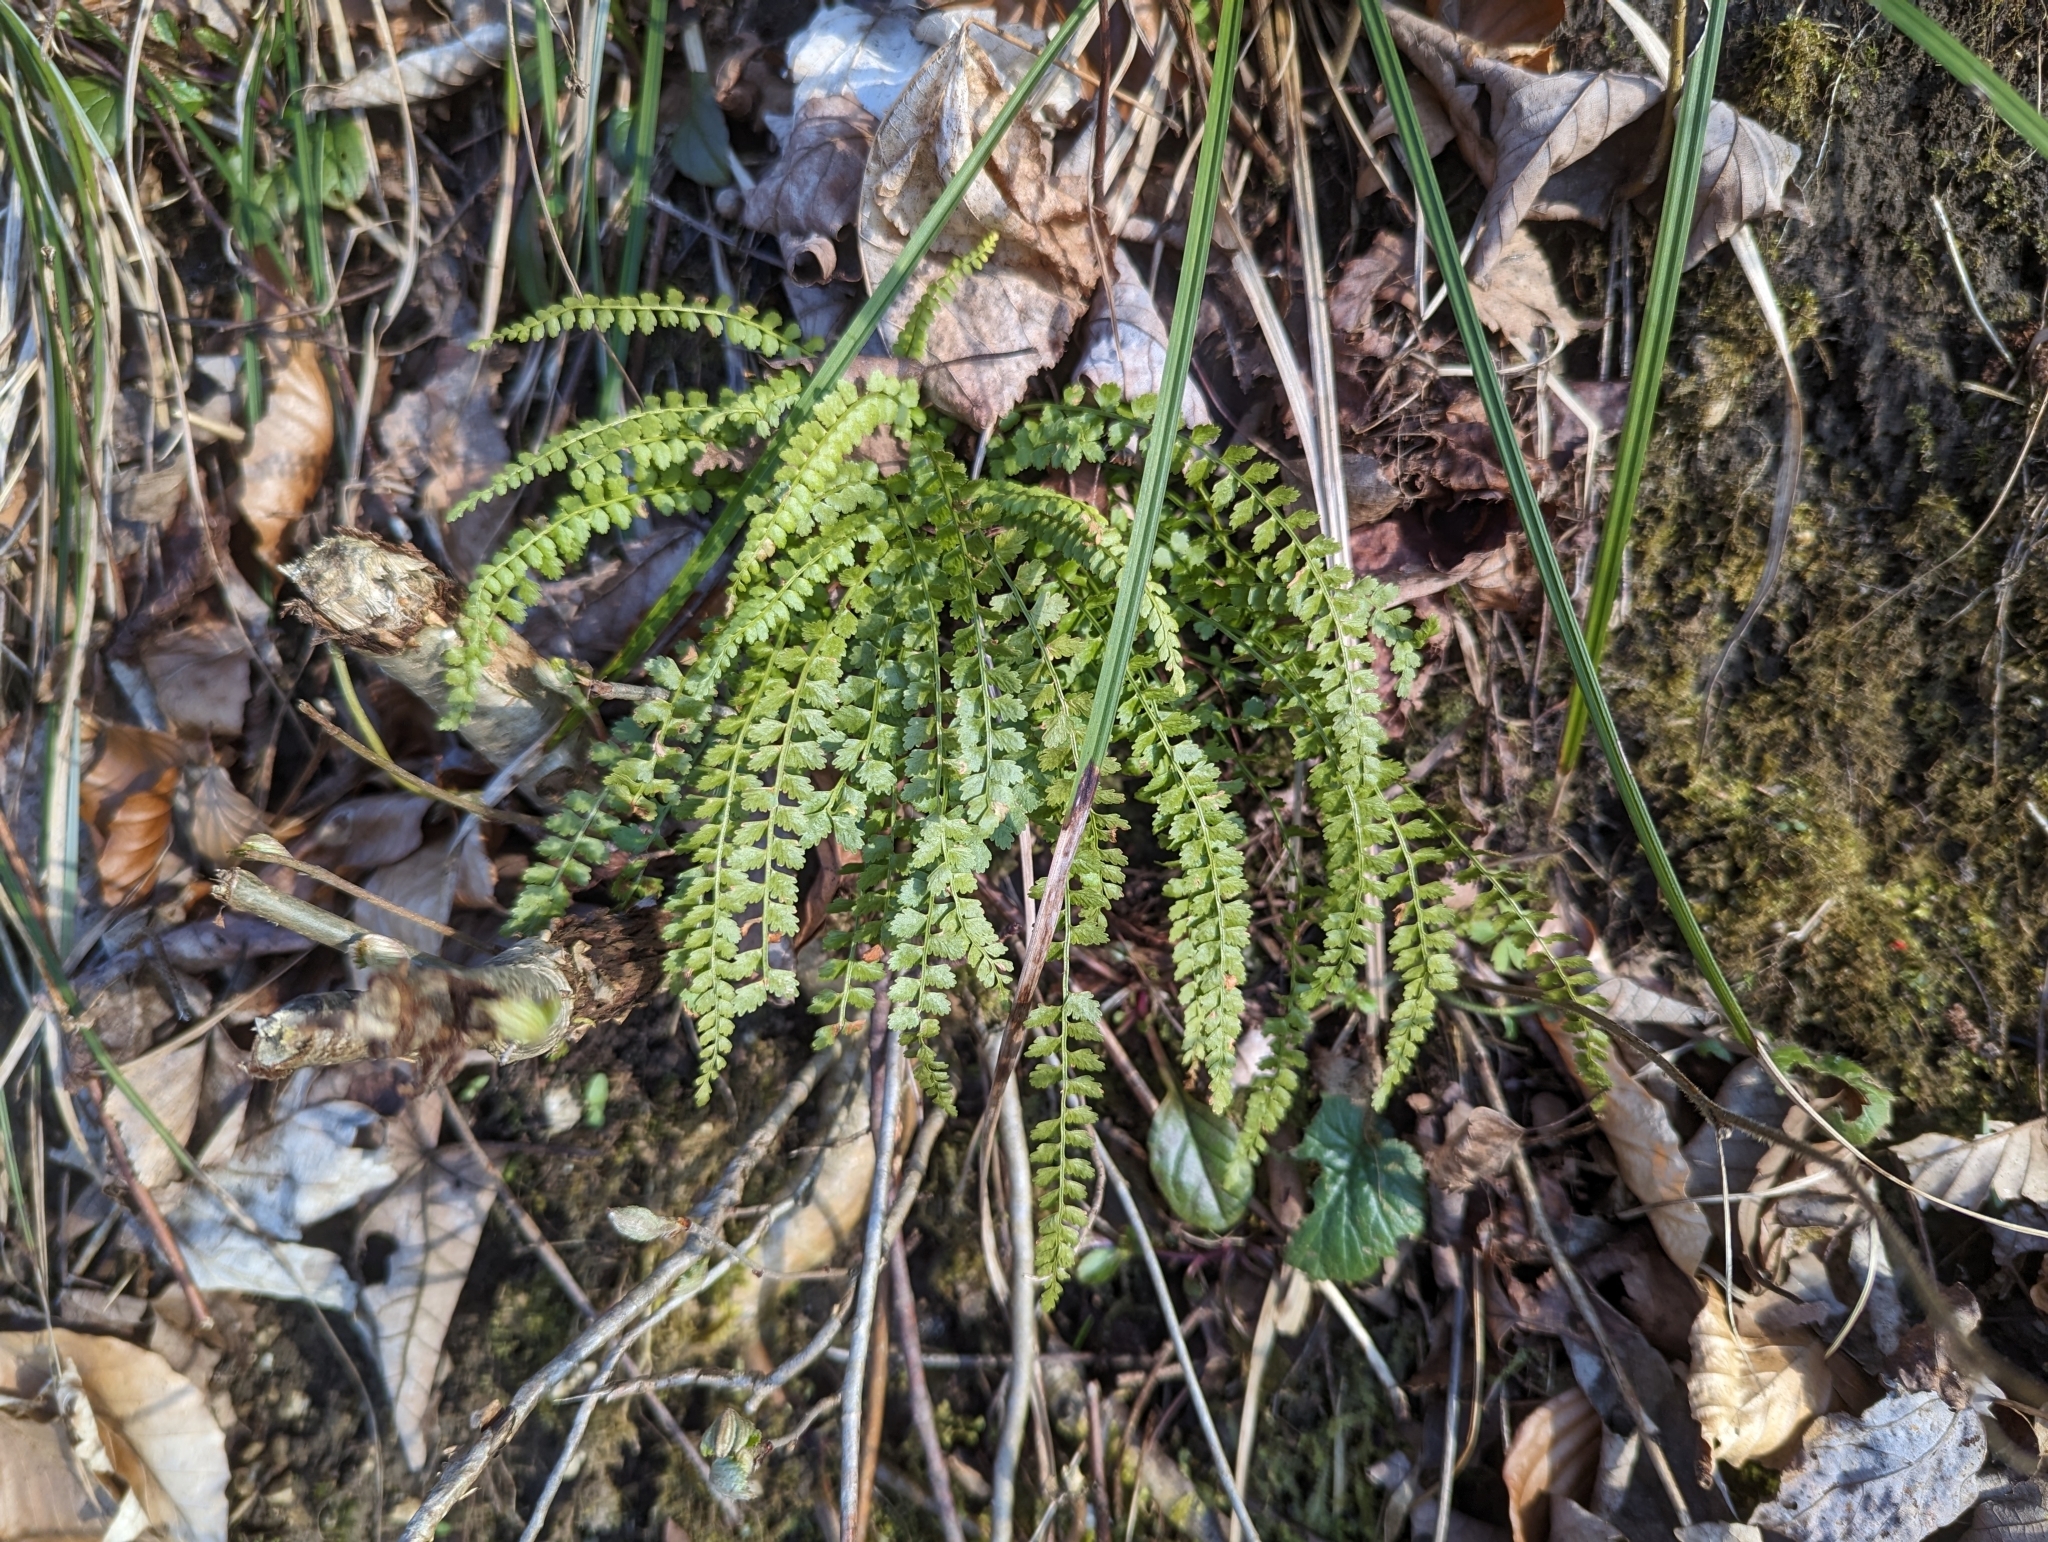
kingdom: Plantae
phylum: Tracheophyta
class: Polypodiopsida
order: Polypodiales
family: Aspleniaceae
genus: Asplenium
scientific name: Asplenium viride
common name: Green spleenwort
